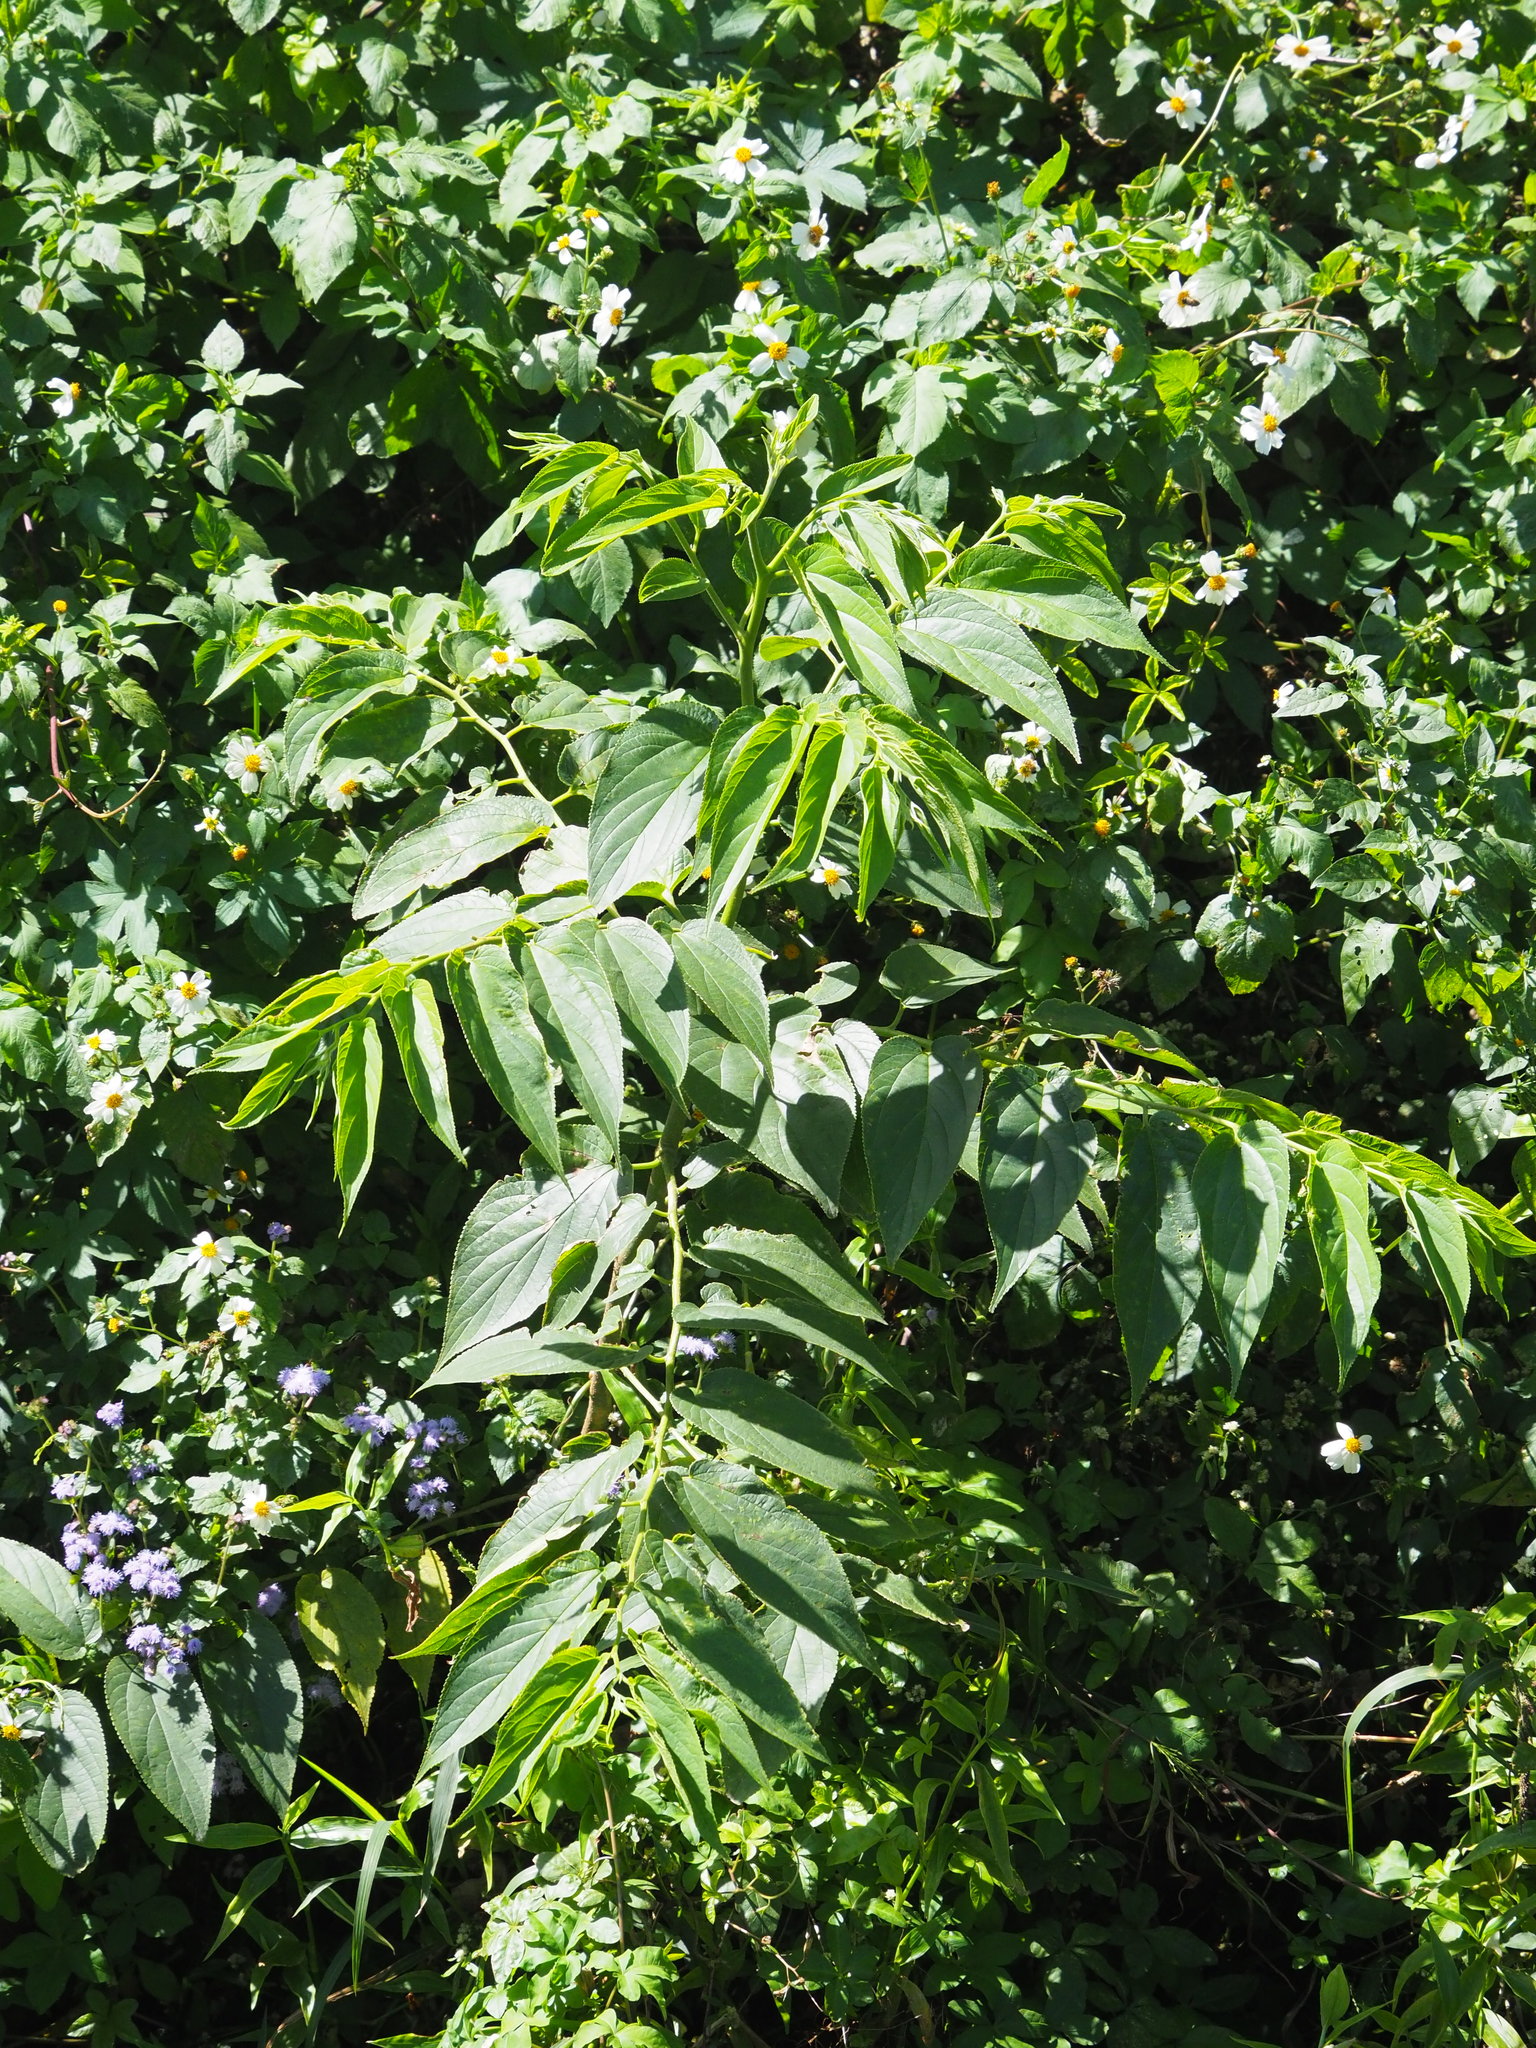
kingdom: Plantae
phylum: Tracheophyta
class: Magnoliopsida
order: Rosales
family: Cannabaceae
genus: Trema
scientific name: Trema orientale
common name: Indian charcoal tree
